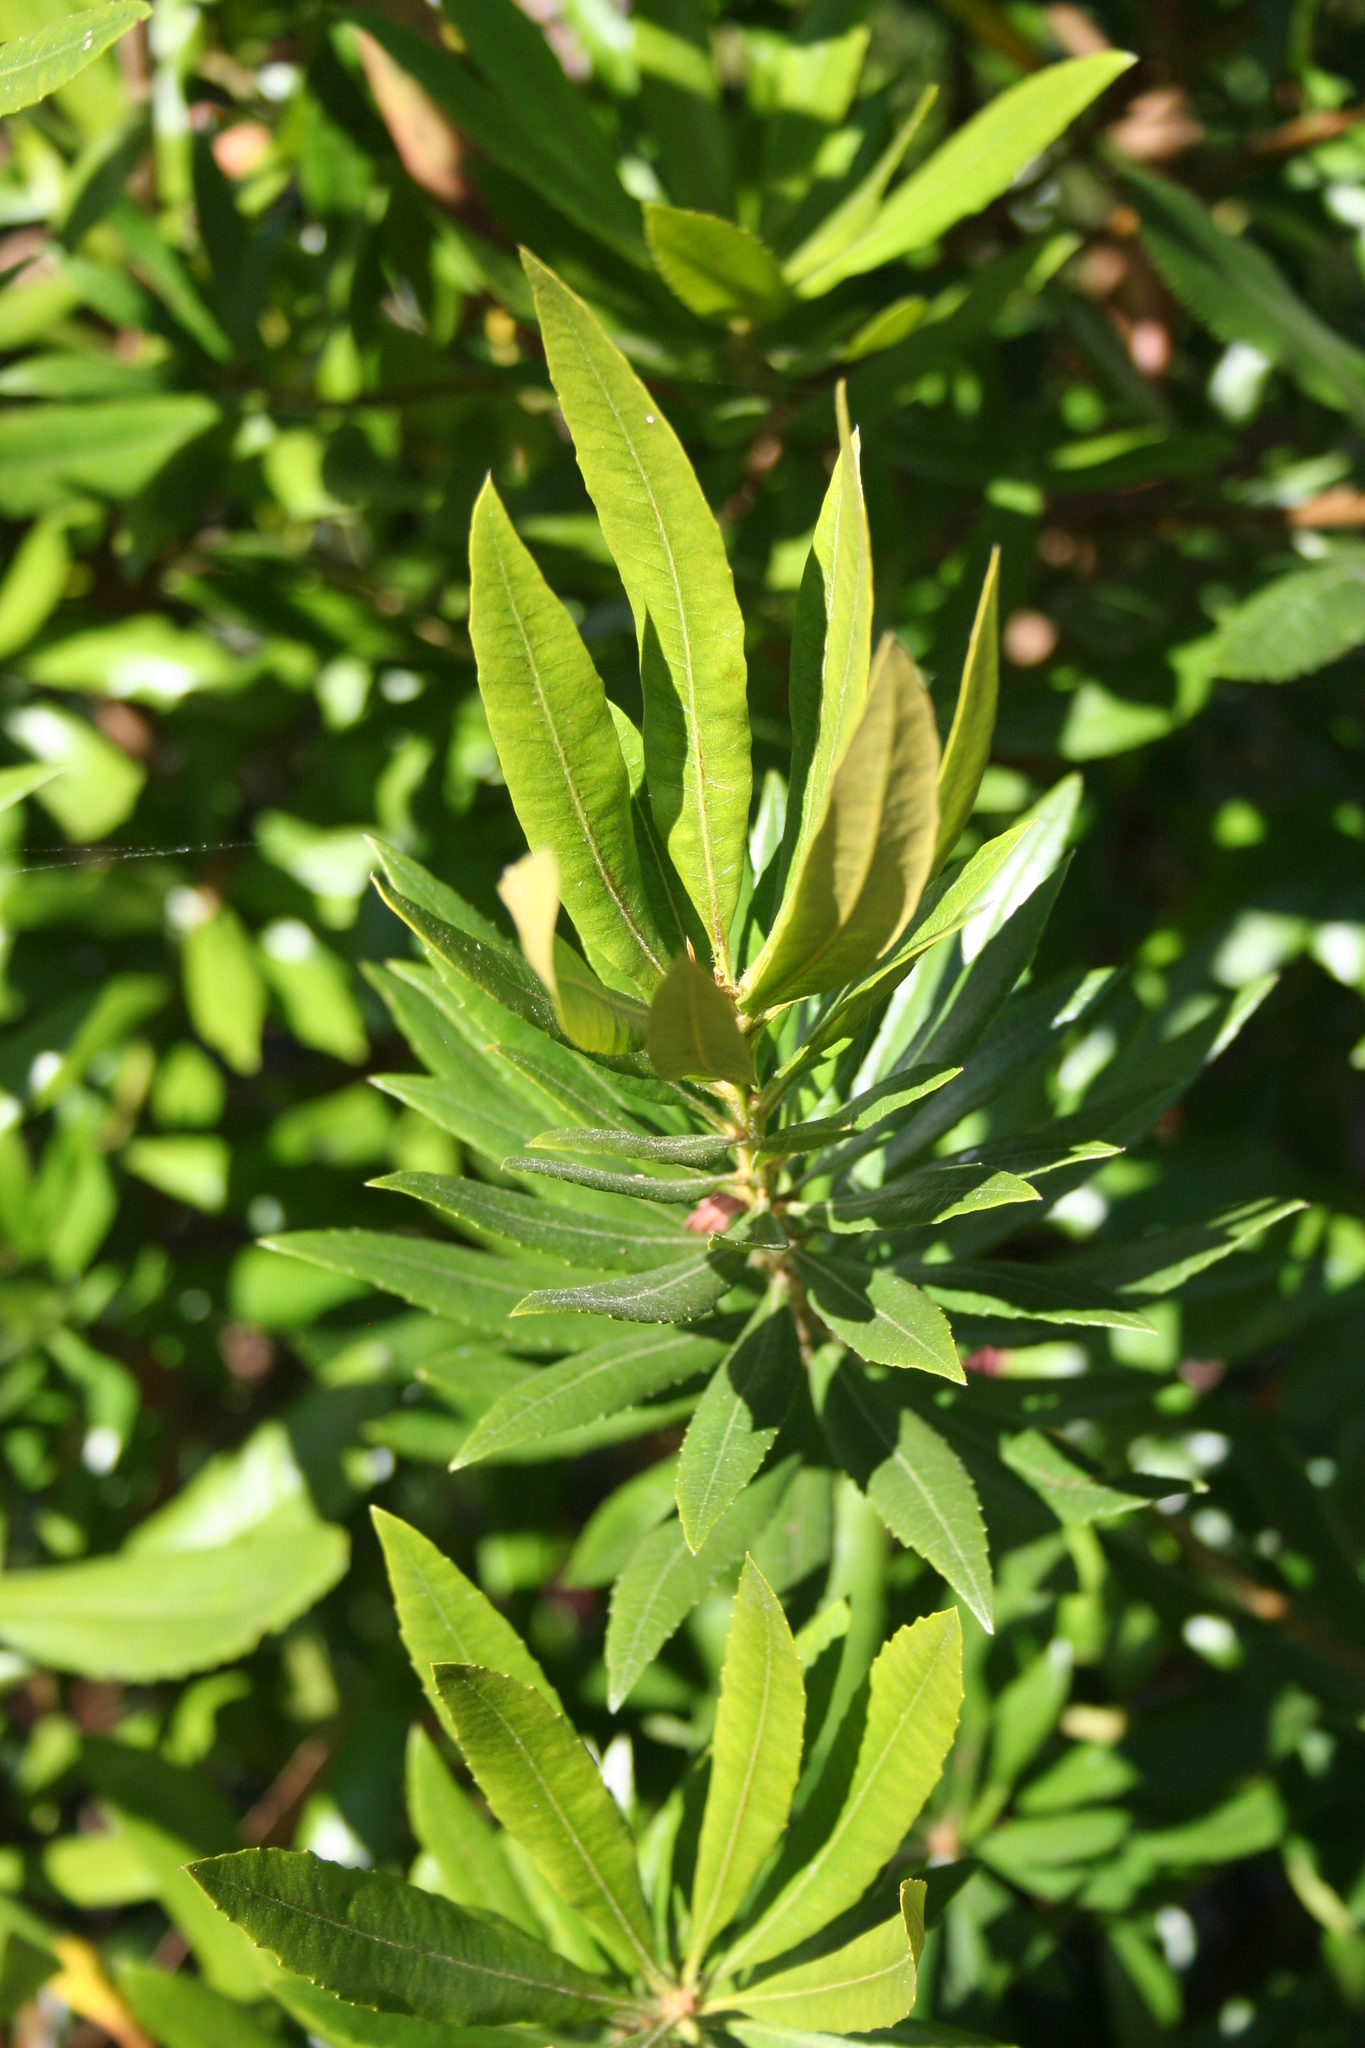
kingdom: Plantae
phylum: Tracheophyta
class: Magnoliopsida
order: Fagales
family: Myricaceae
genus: Morella
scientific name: Morella californica
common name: California wax-myrtle
